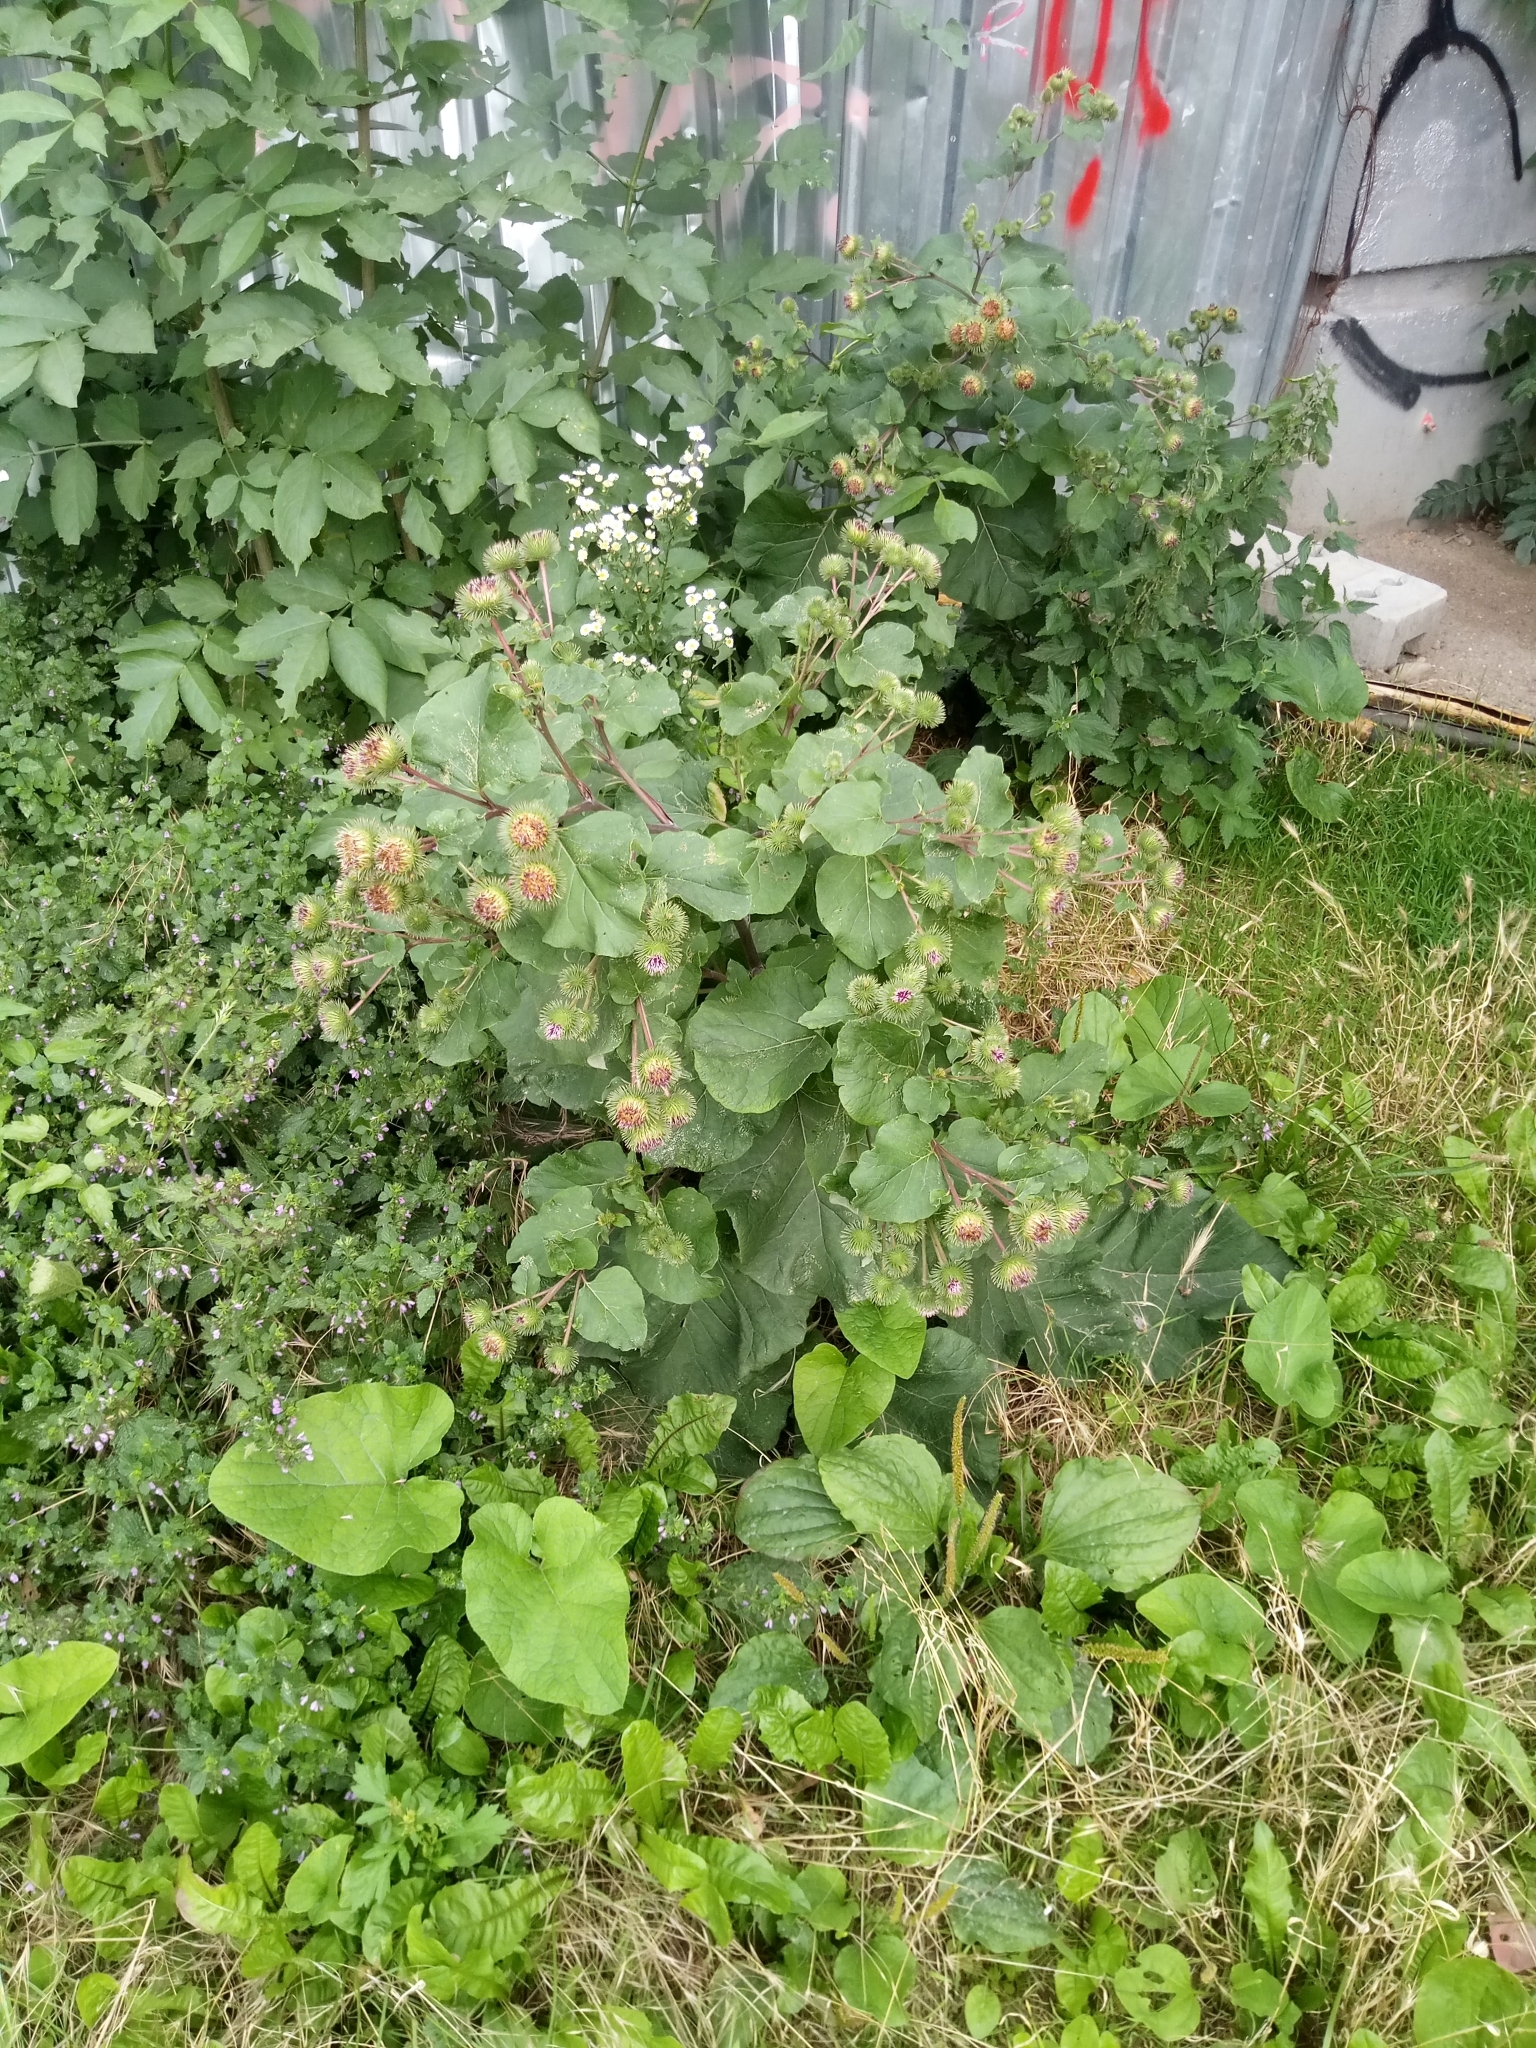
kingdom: Plantae
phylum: Tracheophyta
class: Magnoliopsida
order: Asterales
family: Asteraceae
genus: Arctium
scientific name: Arctium lappa
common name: Greater burdock
